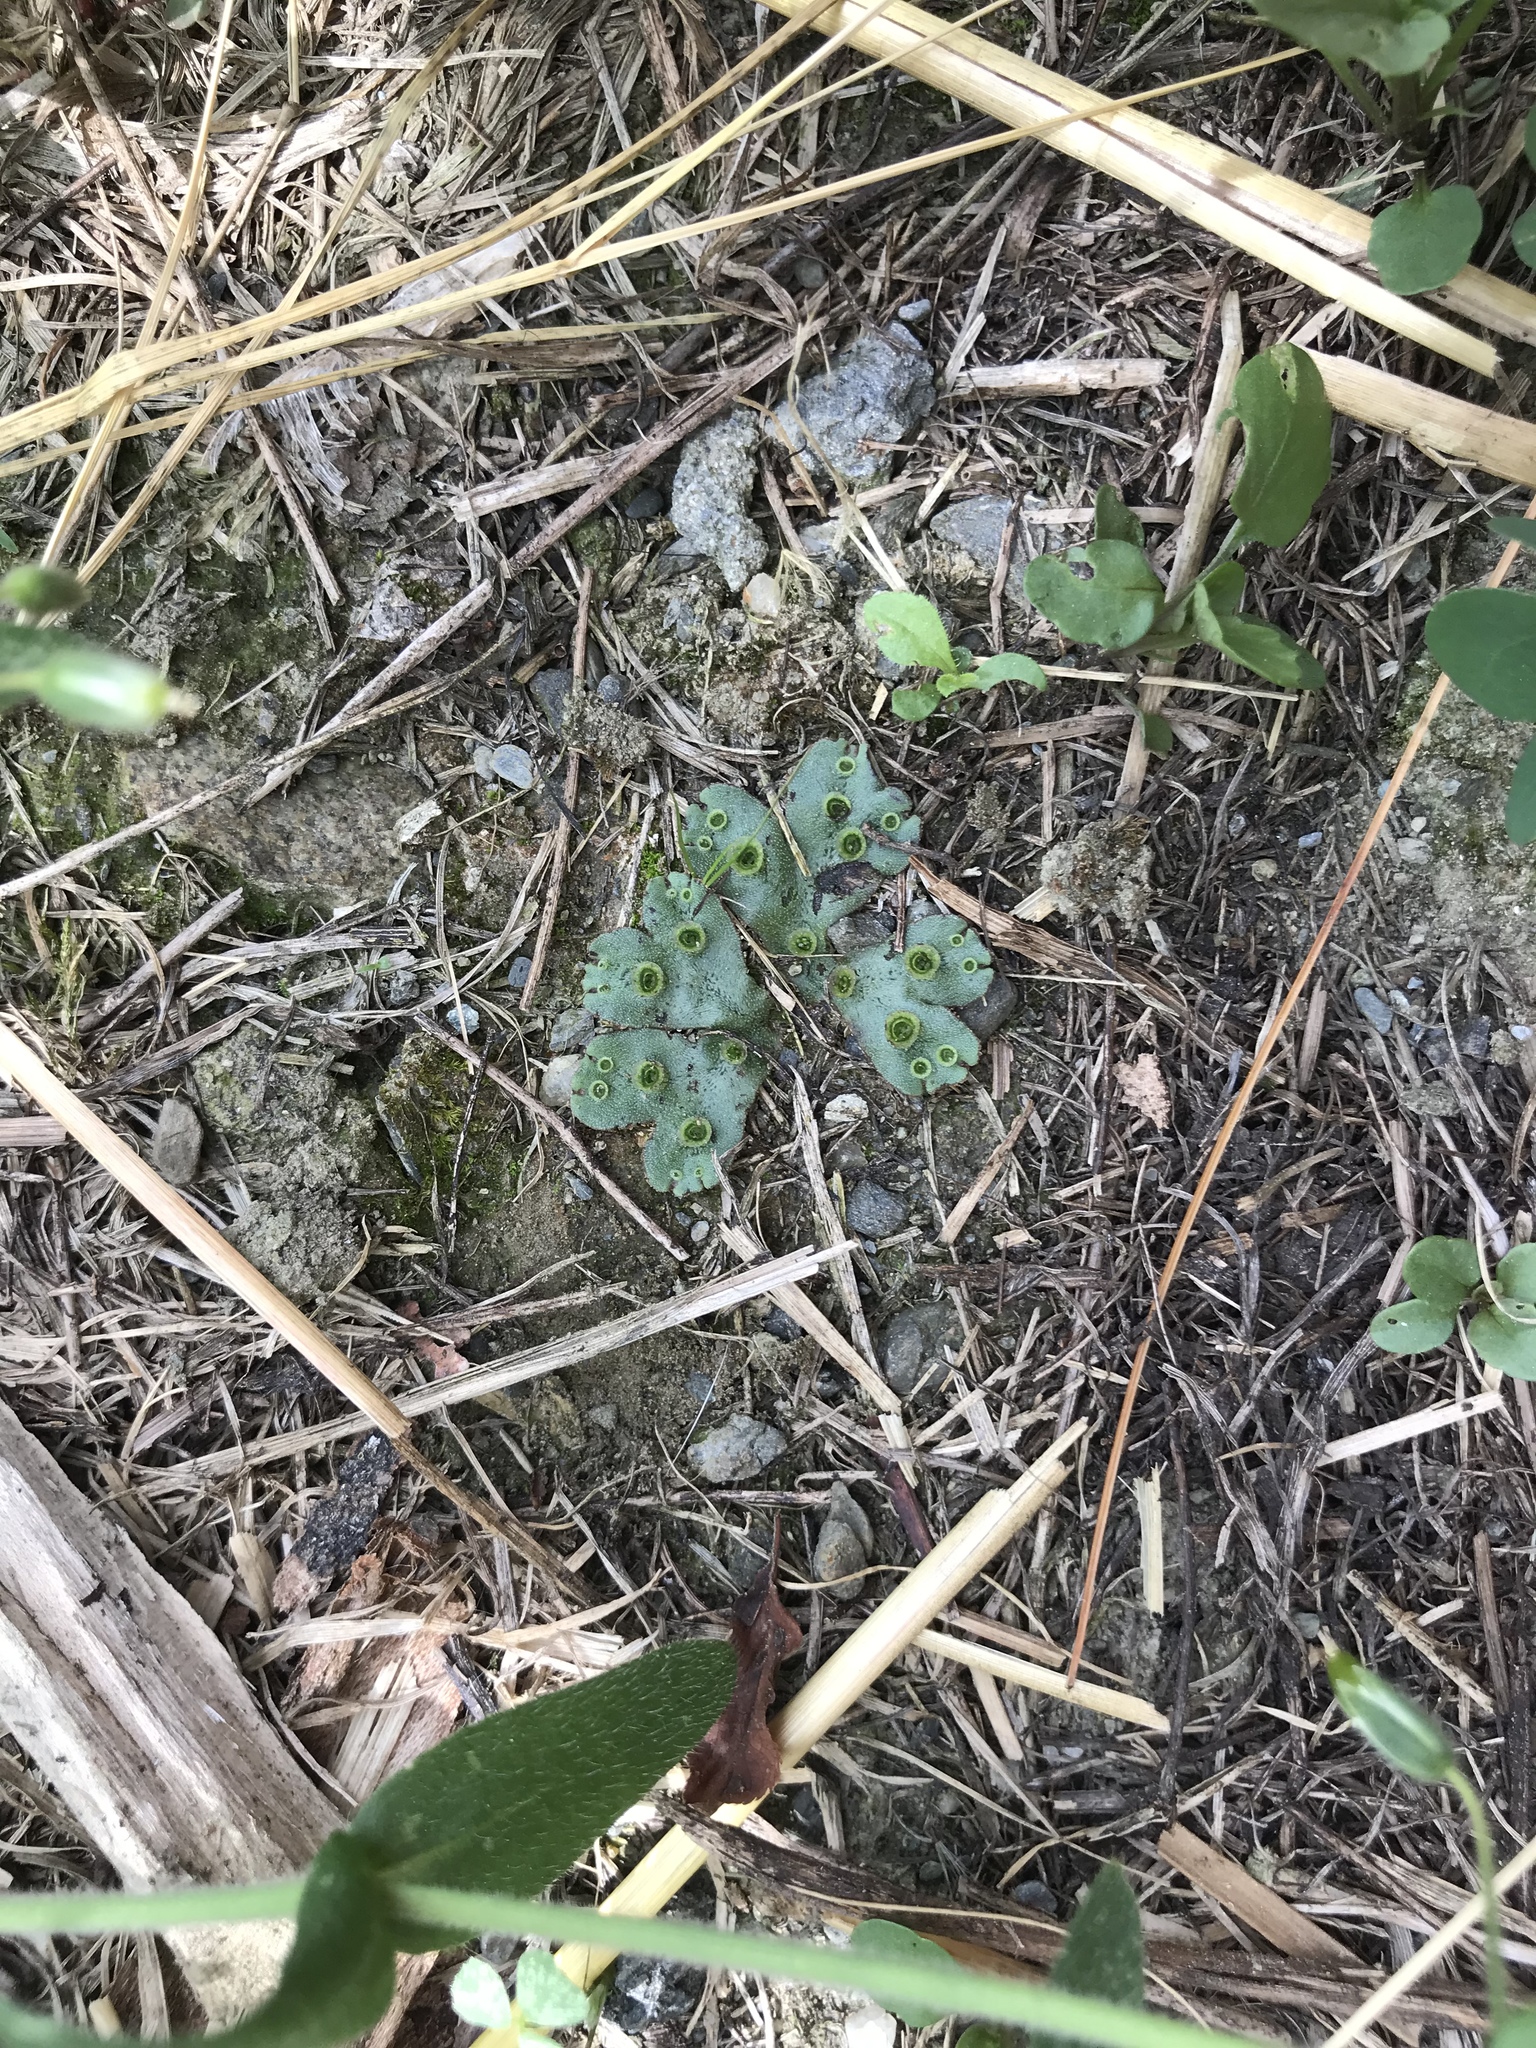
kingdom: Plantae
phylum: Marchantiophyta
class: Marchantiopsida
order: Marchantiales
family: Marchantiaceae
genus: Marchantia
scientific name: Marchantia polymorpha
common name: Common liverwort
